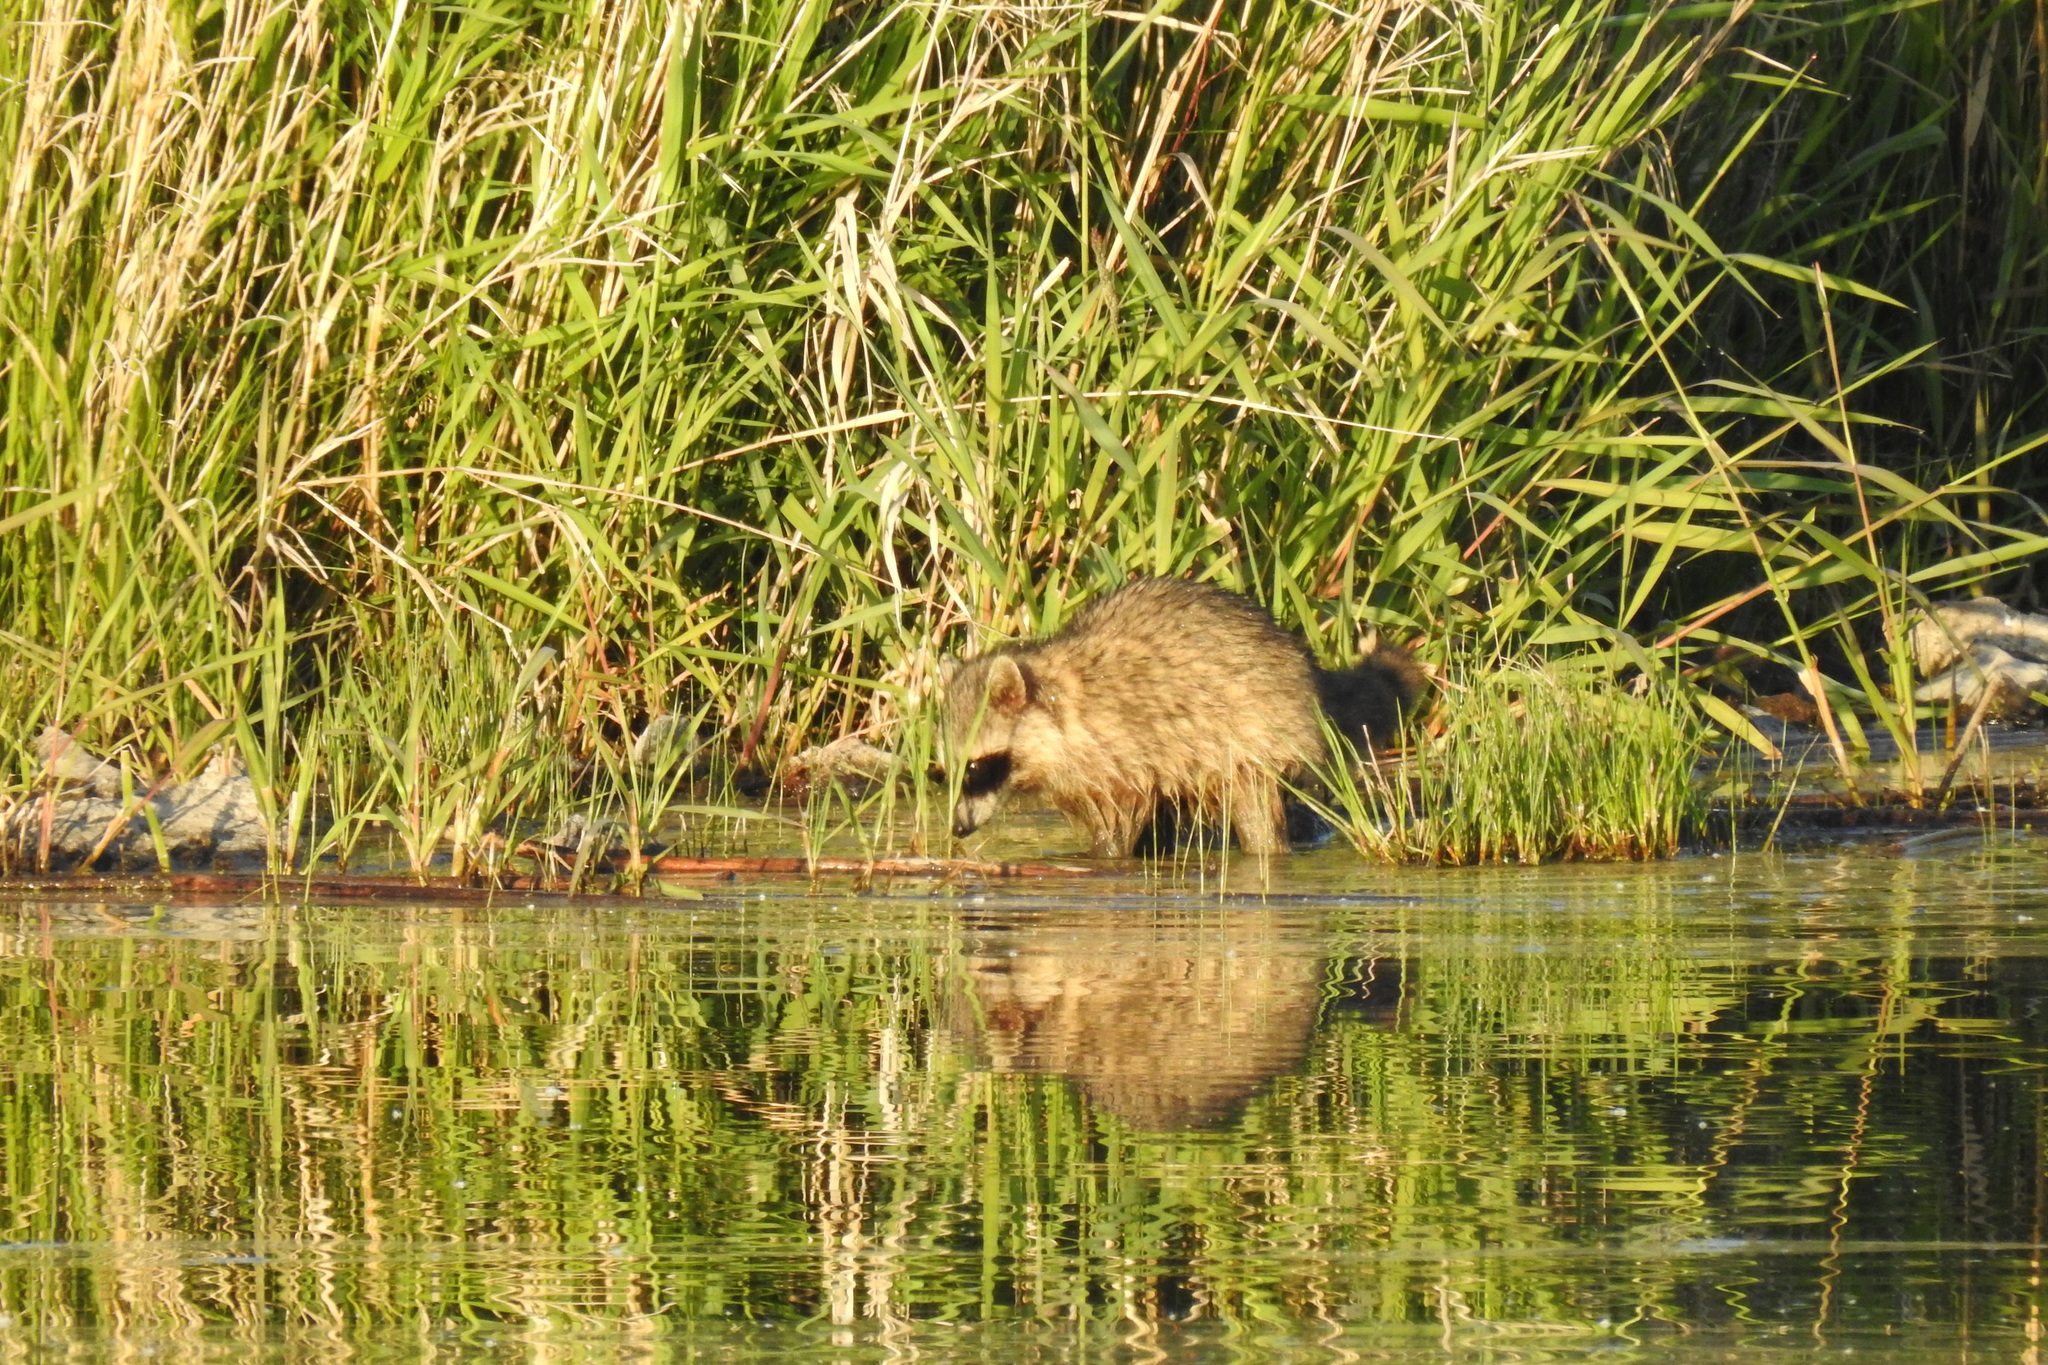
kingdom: Animalia
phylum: Chordata
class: Mammalia
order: Carnivora
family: Procyonidae
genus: Procyon
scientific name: Procyon lotor
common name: Raccoon
